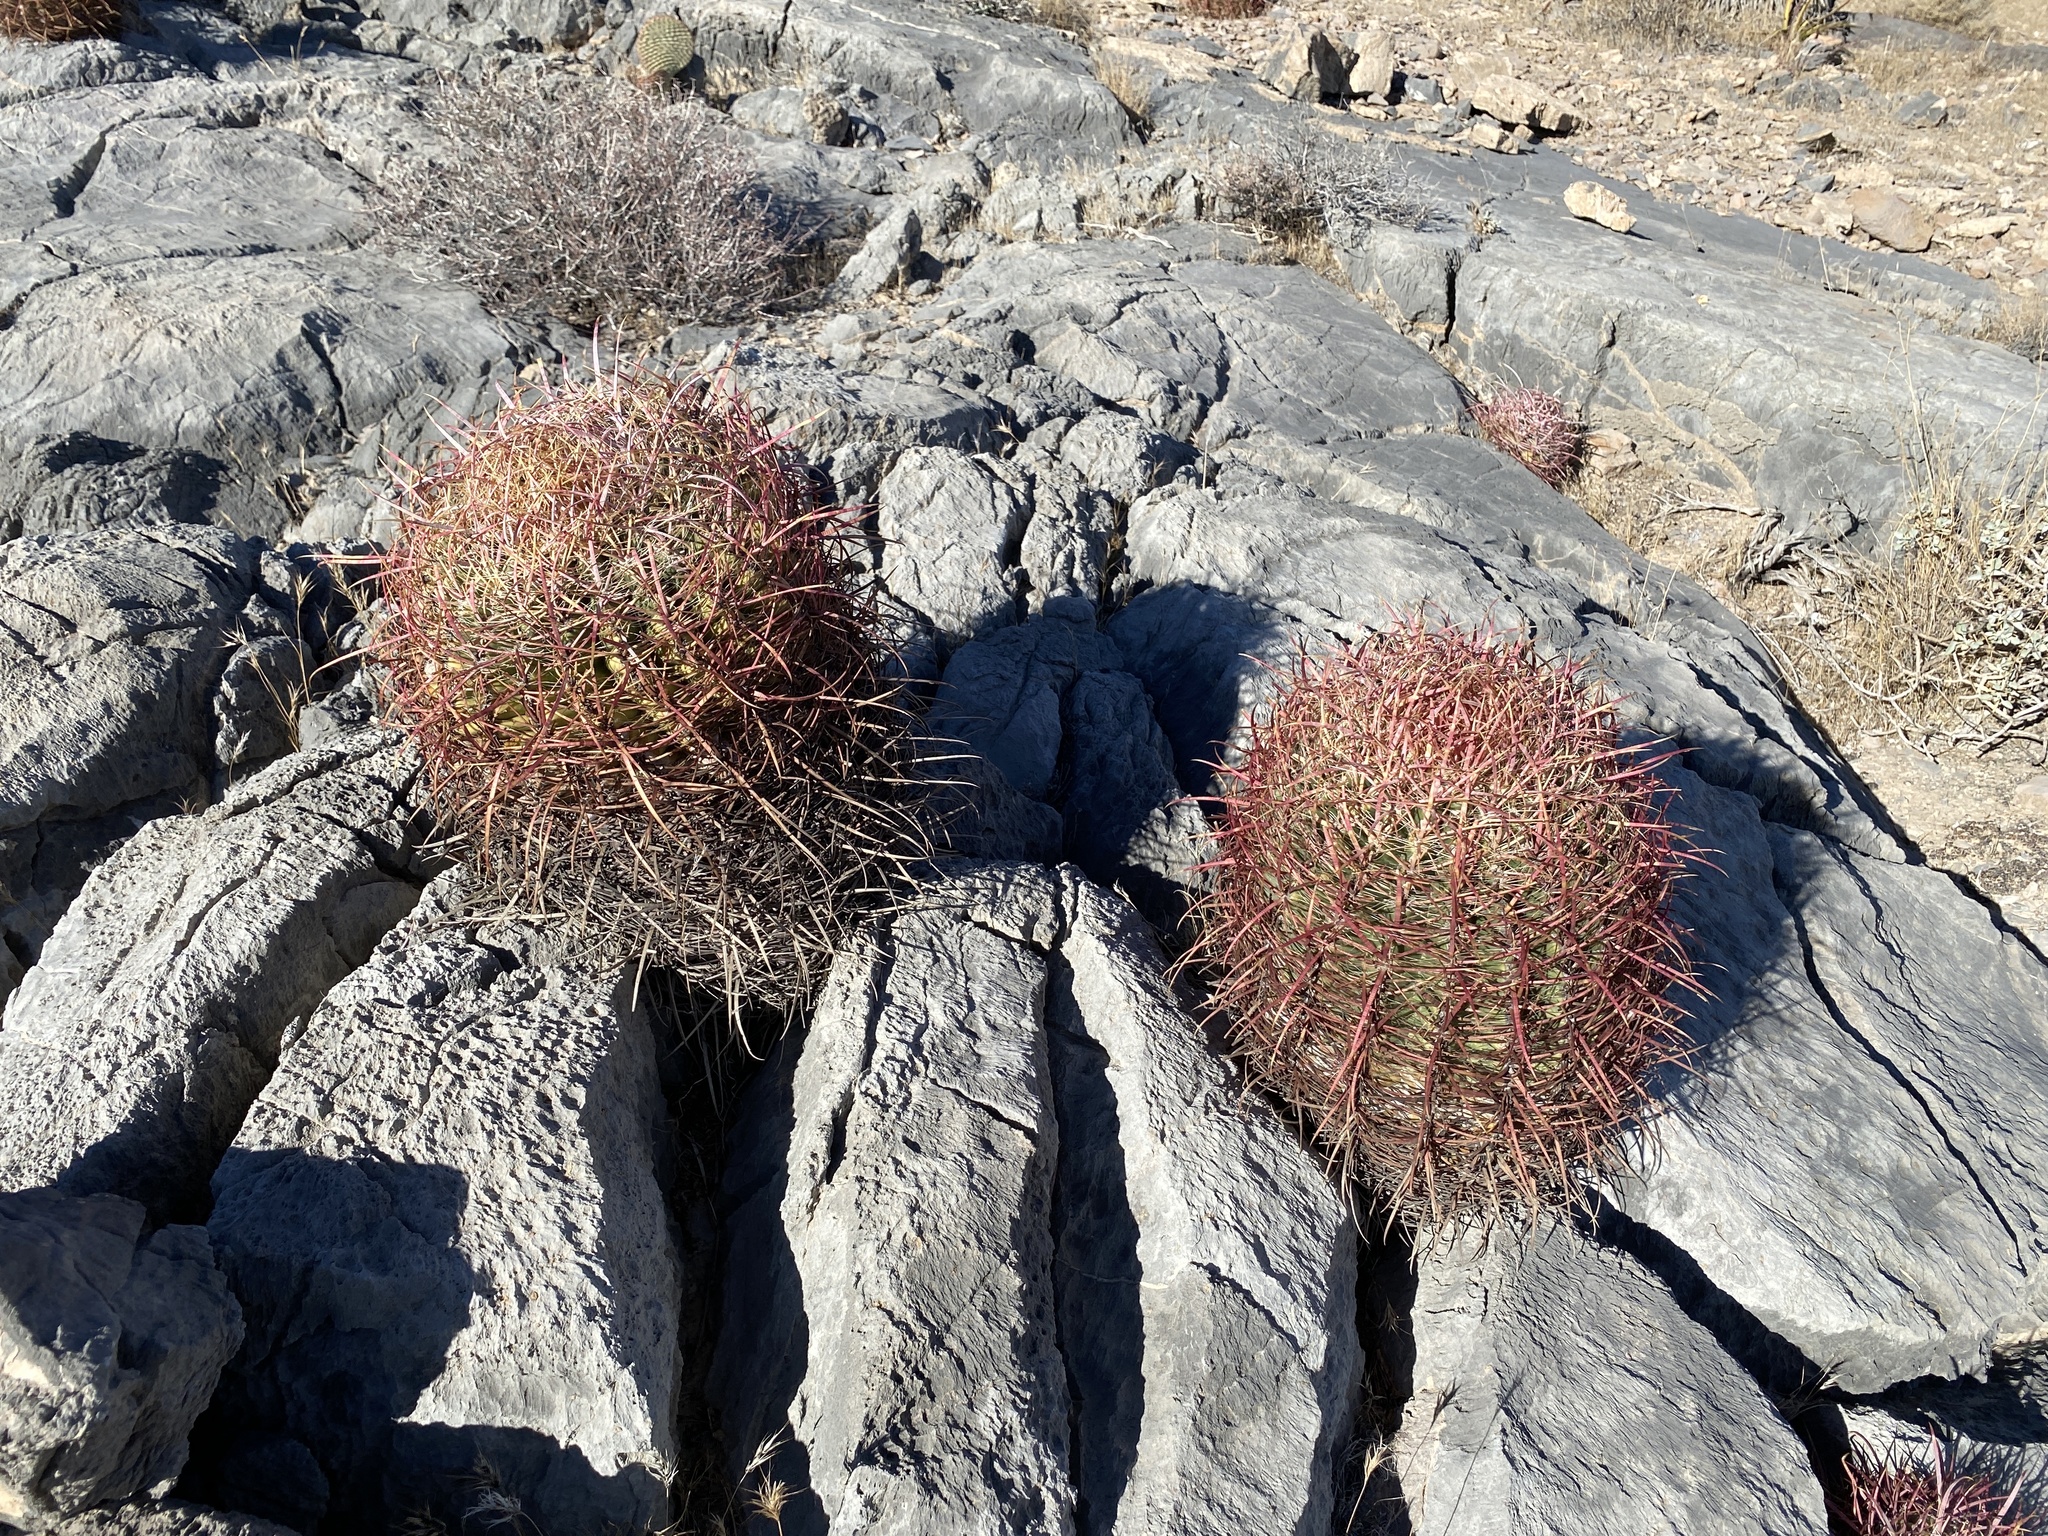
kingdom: Plantae
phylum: Tracheophyta
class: Magnoliopsida
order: Caryophyllales
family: Cactaceae
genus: Ferocactus
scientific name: Ferocactus cylindraceus
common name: California barrel cactus
